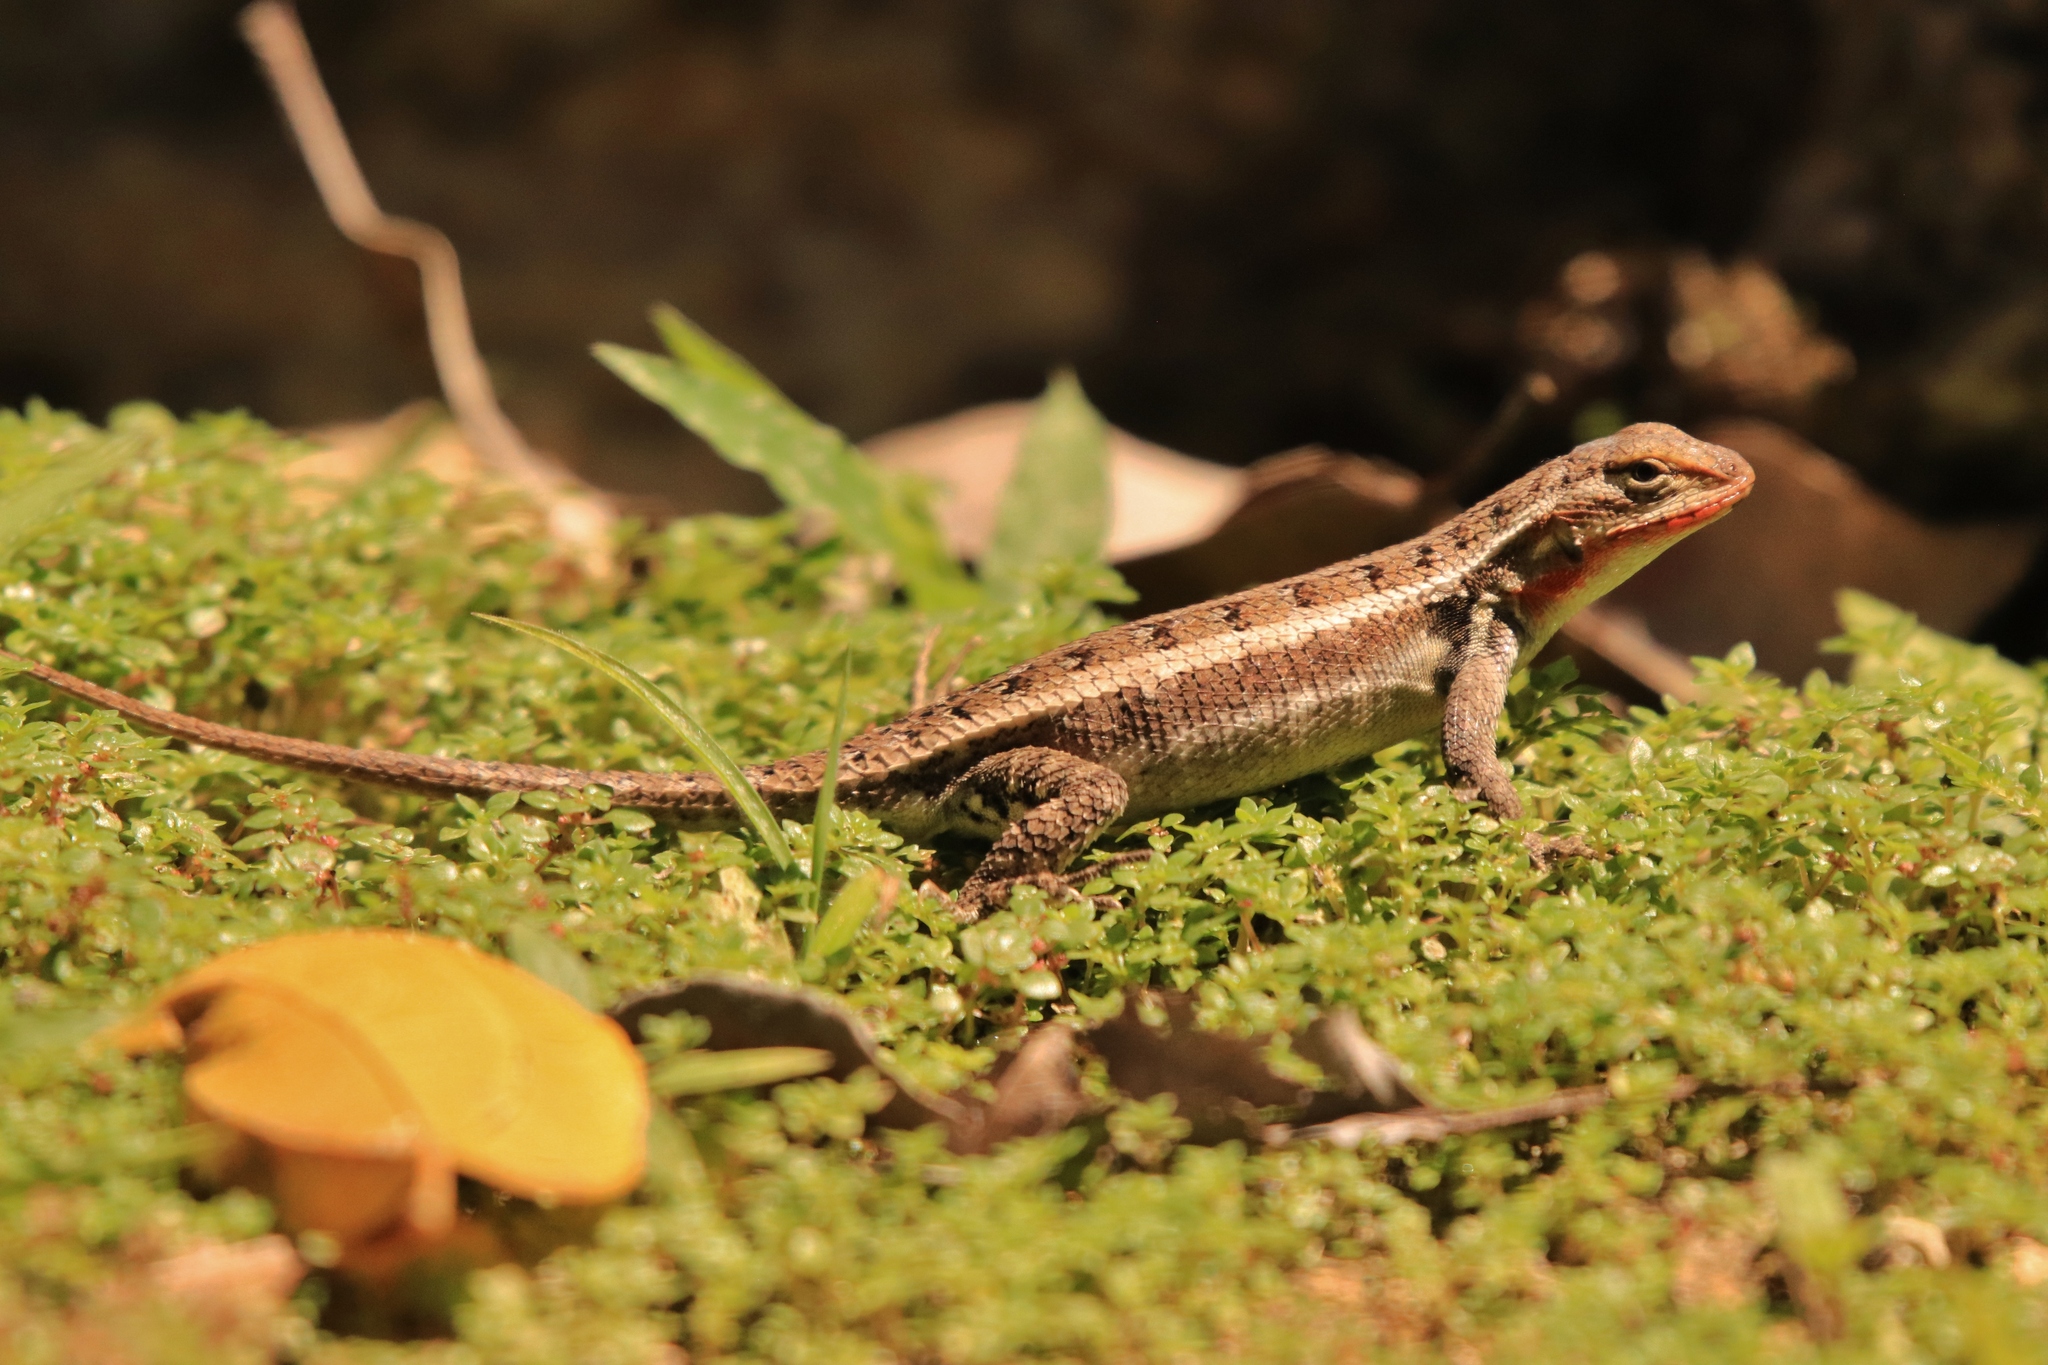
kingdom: Animalia
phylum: Chordata
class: Squamata
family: Phrynosomatidae
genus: Sceloporus
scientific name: Sceloporus variabilis
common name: Rosebelly lizard
